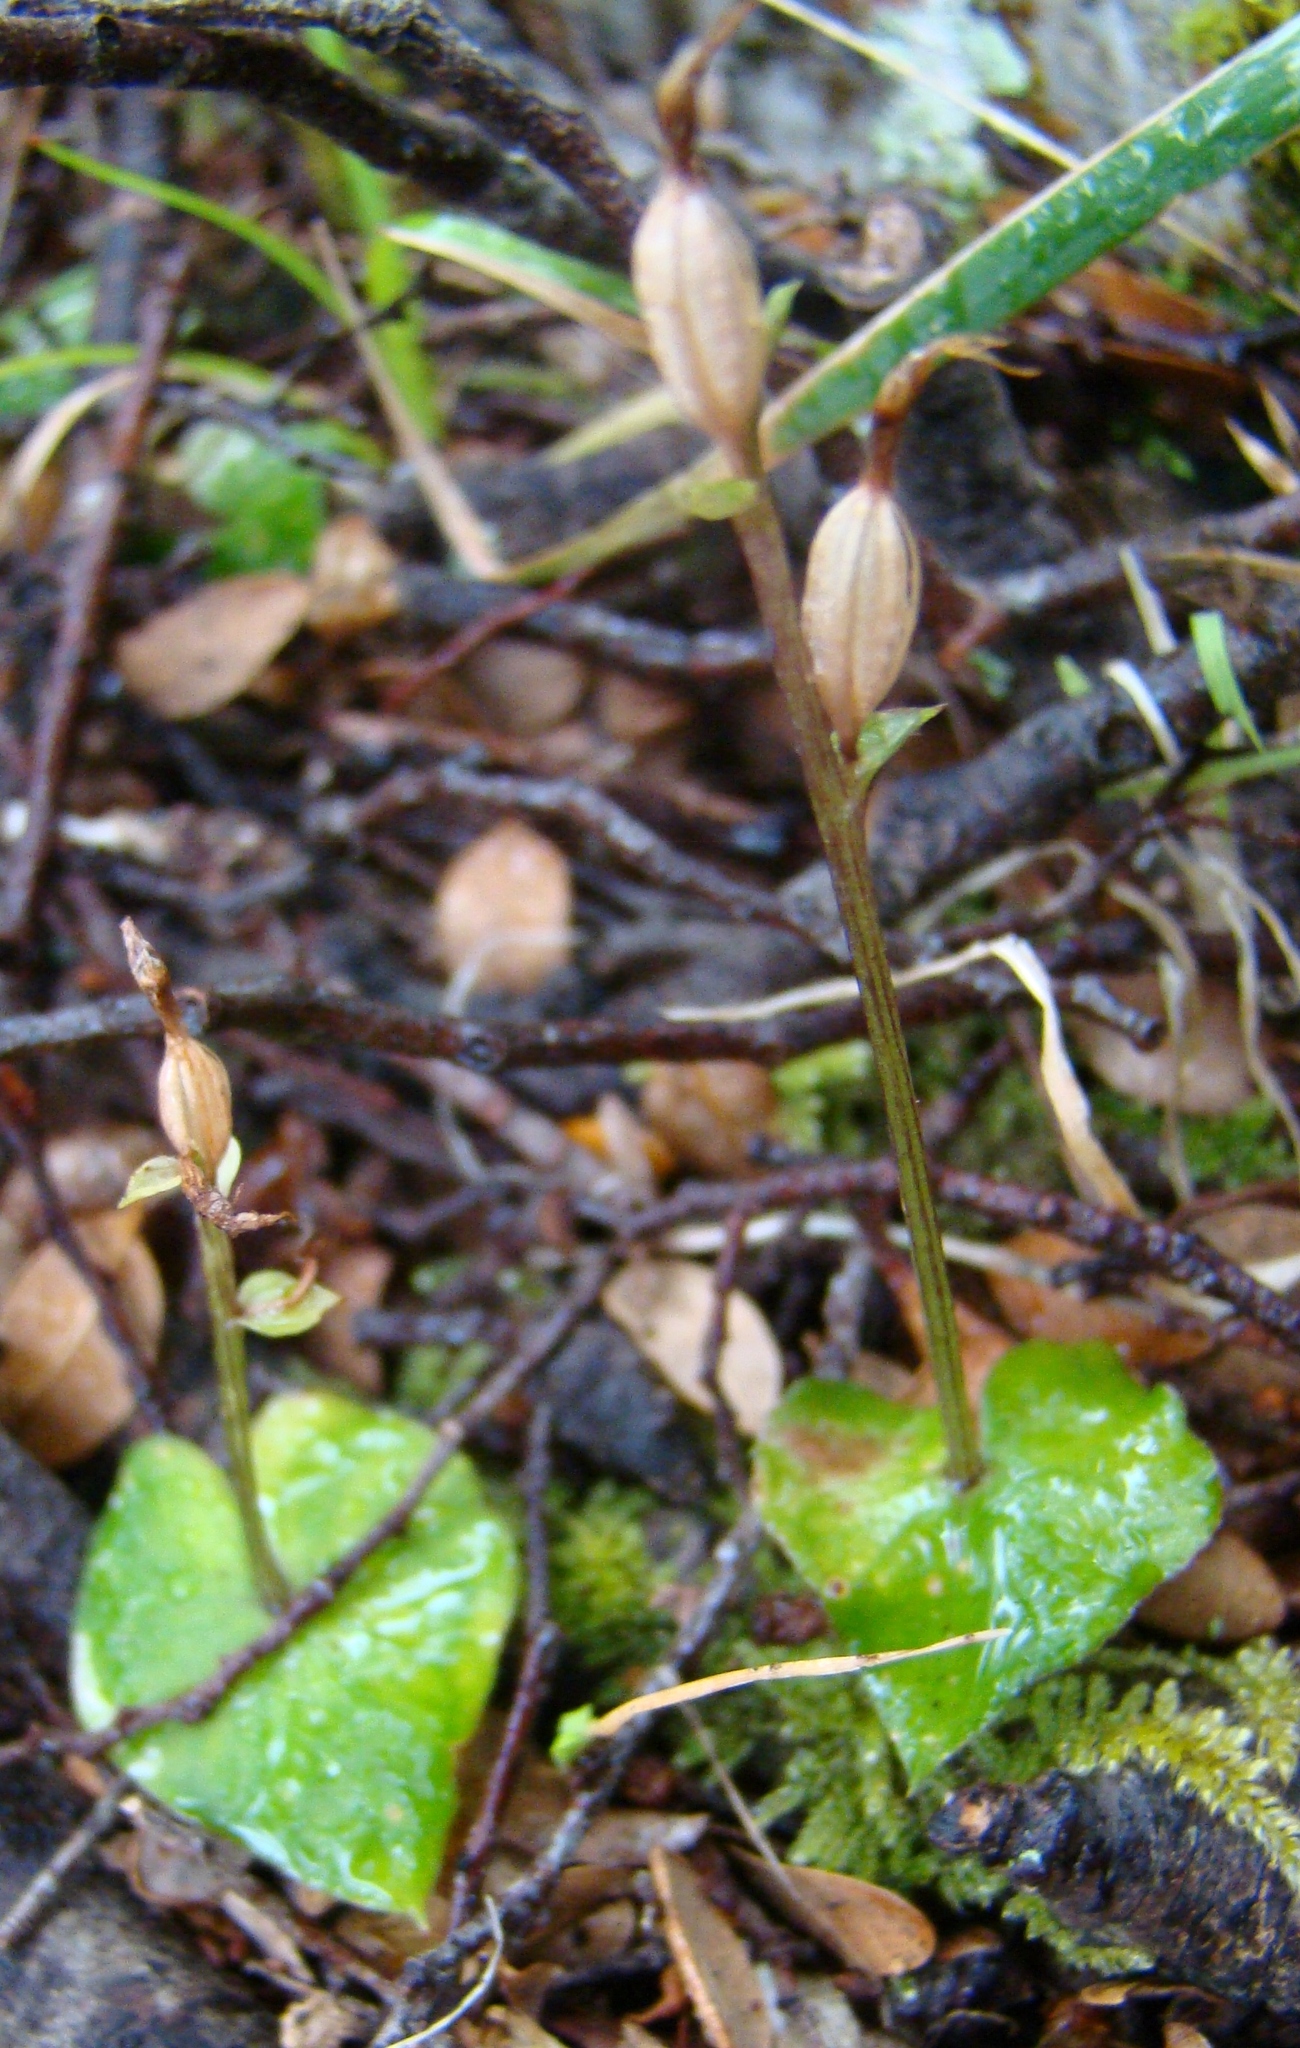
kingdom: Plantae
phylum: Tracheophyta
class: Liliopsida
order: Asparagales
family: Orchidaceae
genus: Acianthus
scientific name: Acianthus sinclairii
